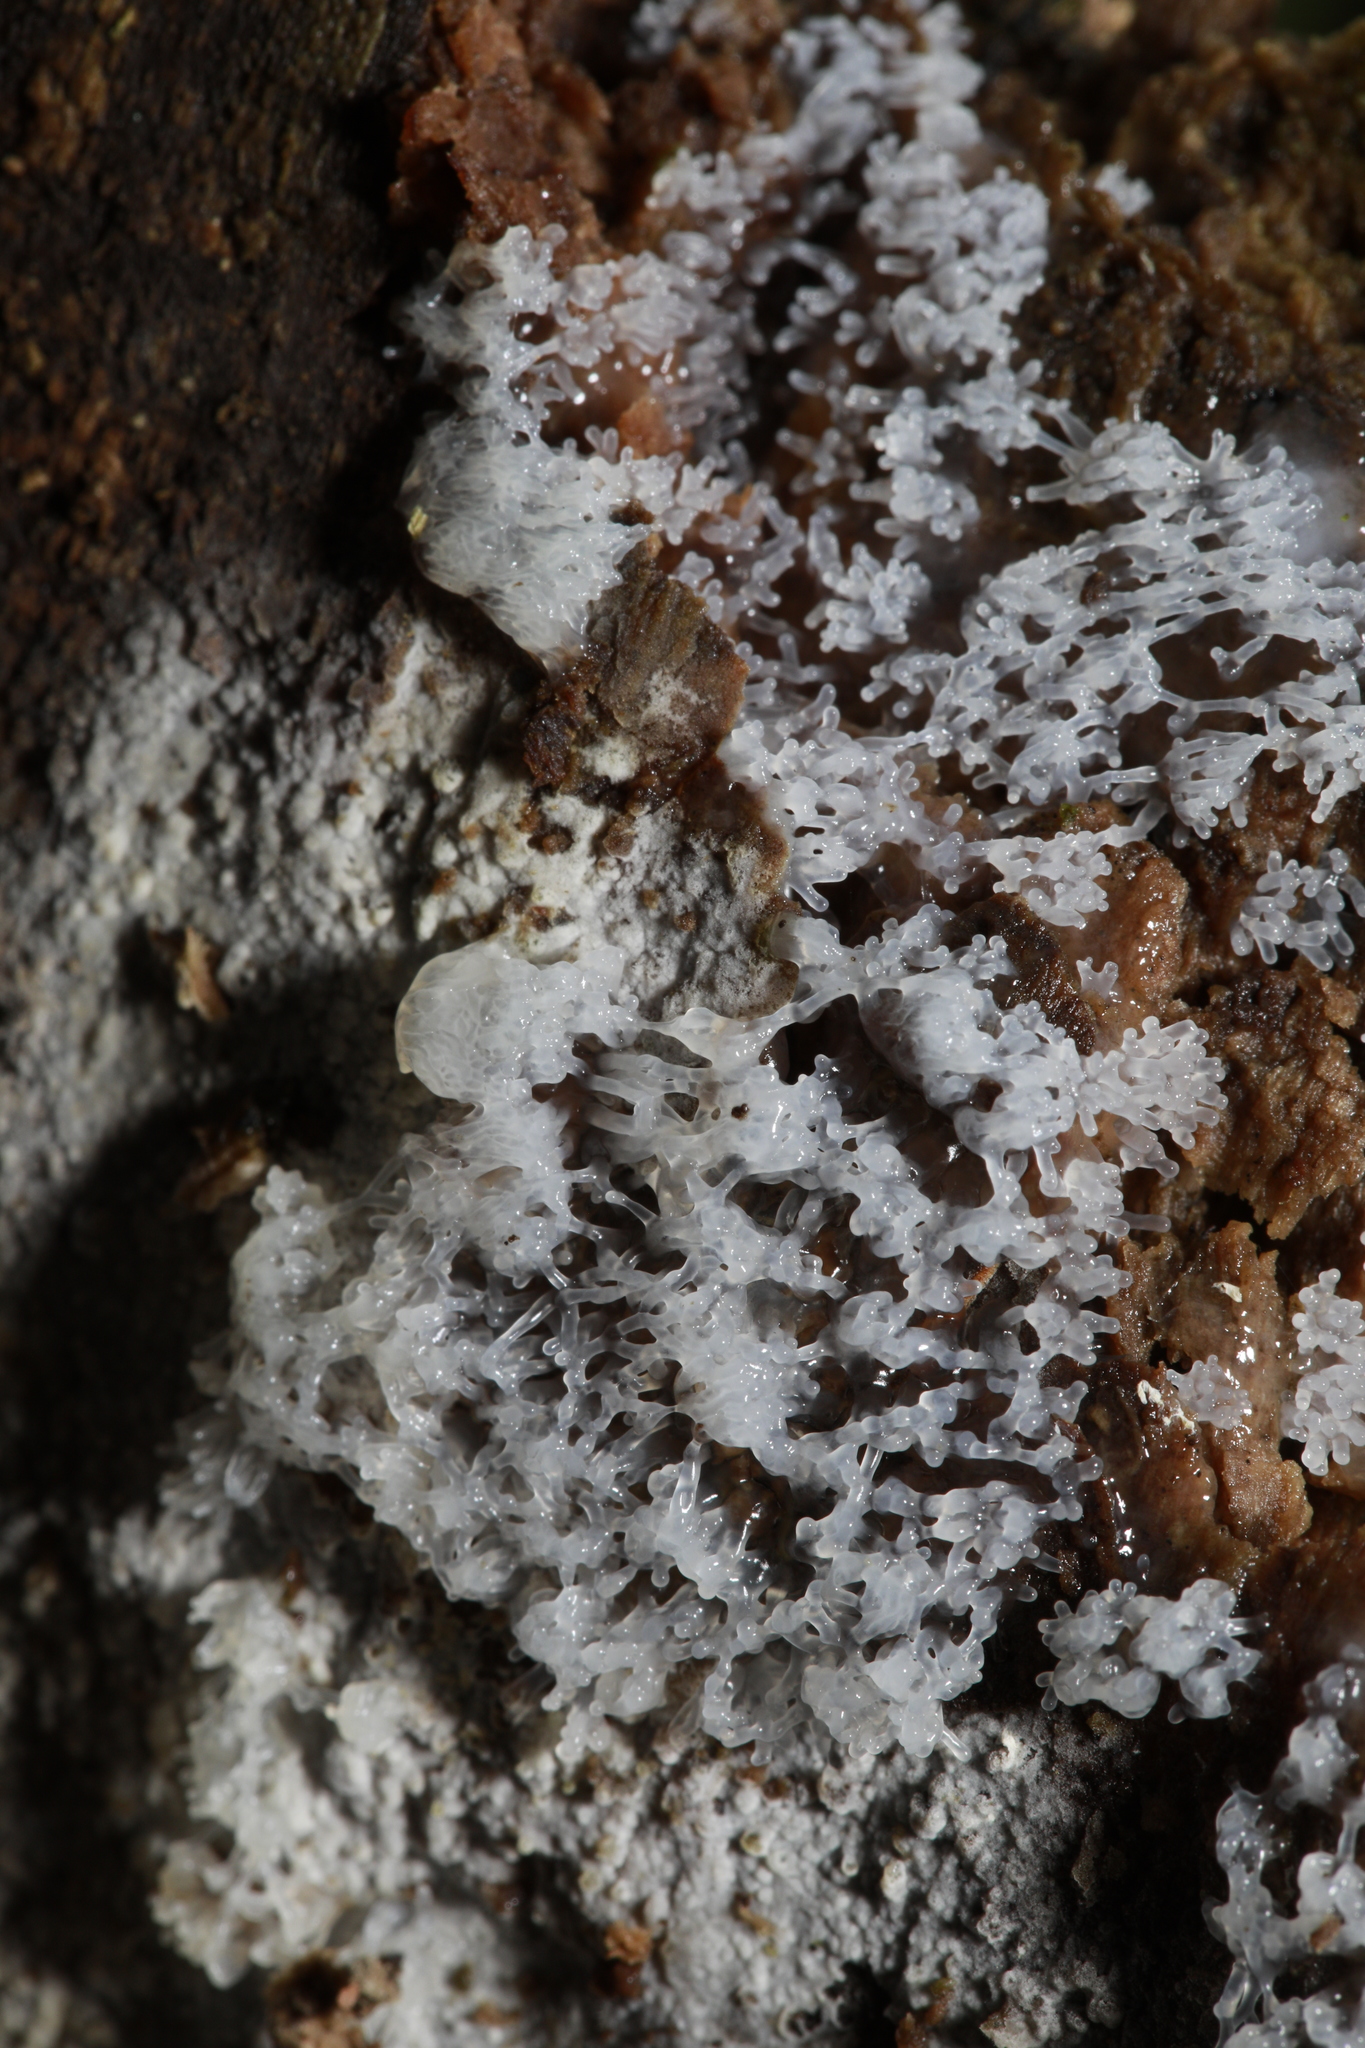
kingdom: Protozoa
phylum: Mycetozoa
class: Protosteliomycetes
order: Ceratiomyxales
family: Ceratiomyxaceae
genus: Ceratiomyxa
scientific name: Ceratiomyxa fruticulosa
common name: Honeycomb coral slime mold
